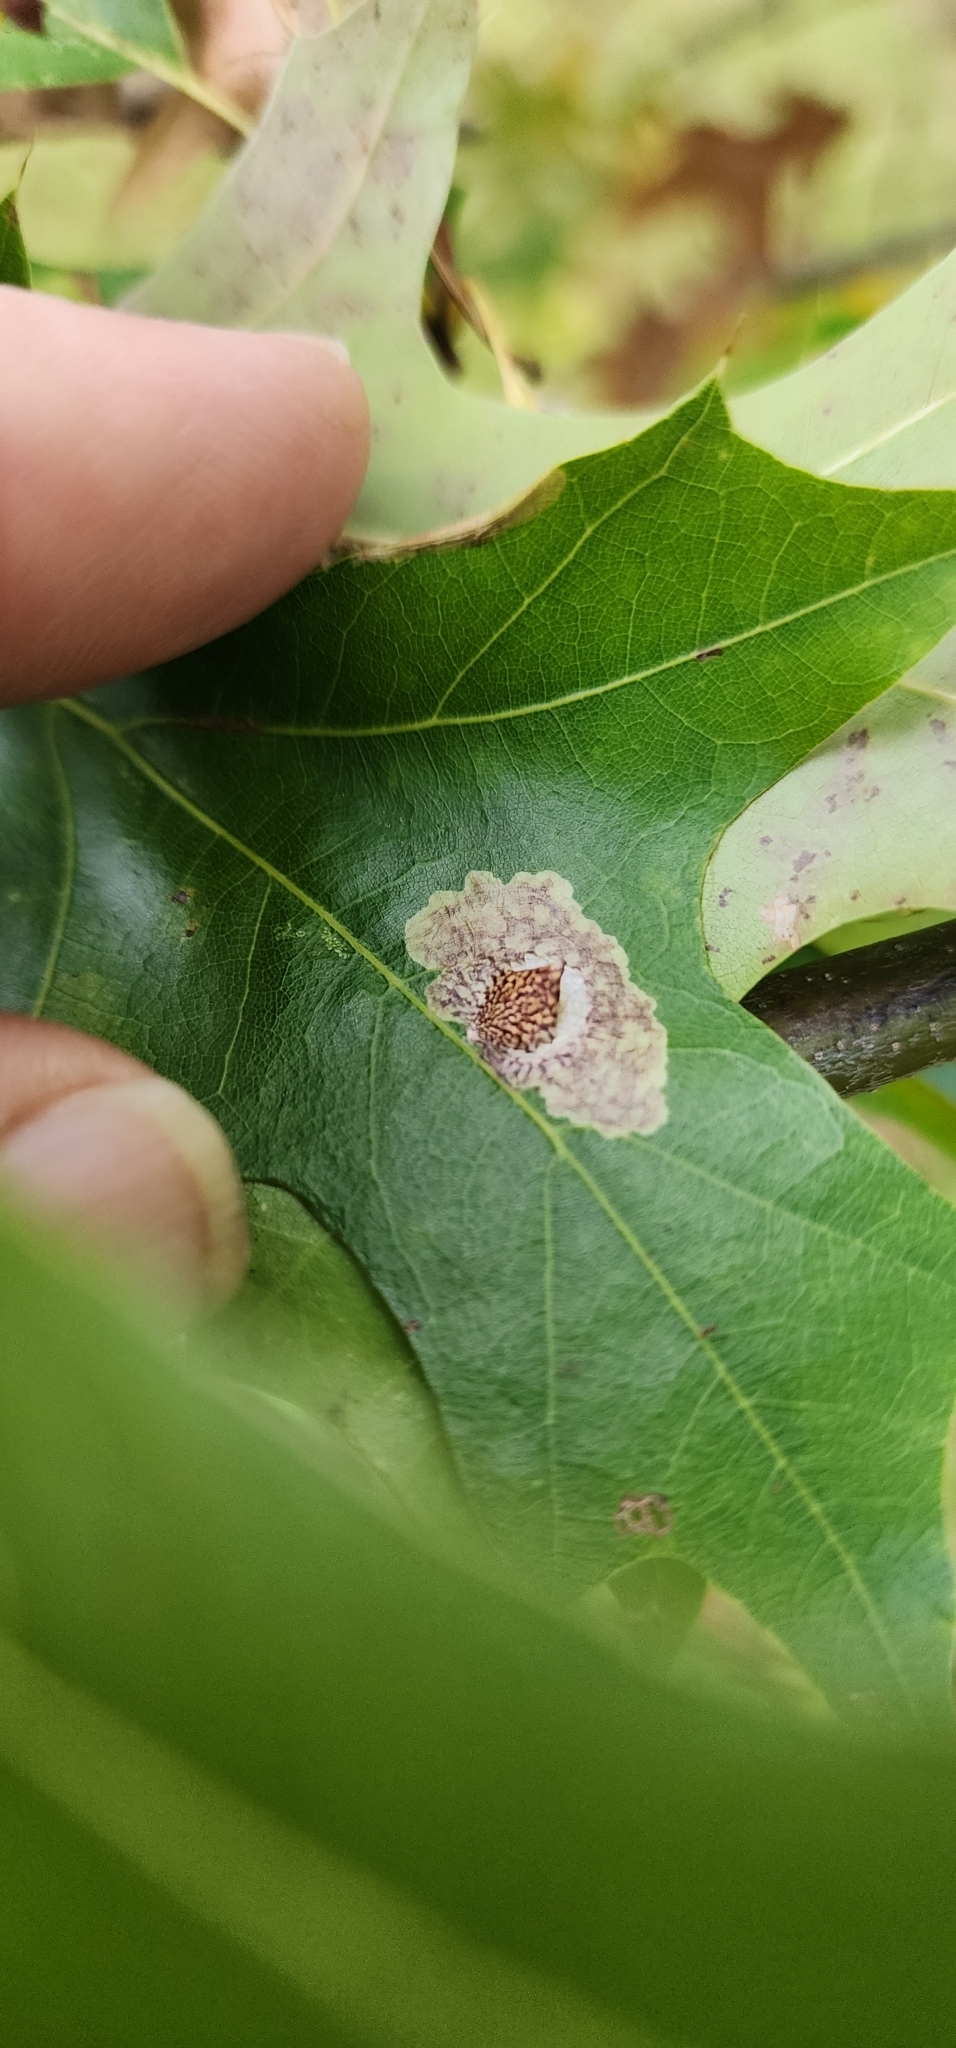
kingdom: Animalia
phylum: Arthropoda
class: Insecta
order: Lepidoptera
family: Tischeriidae
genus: Tischeria
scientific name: Tischeria quercitella
